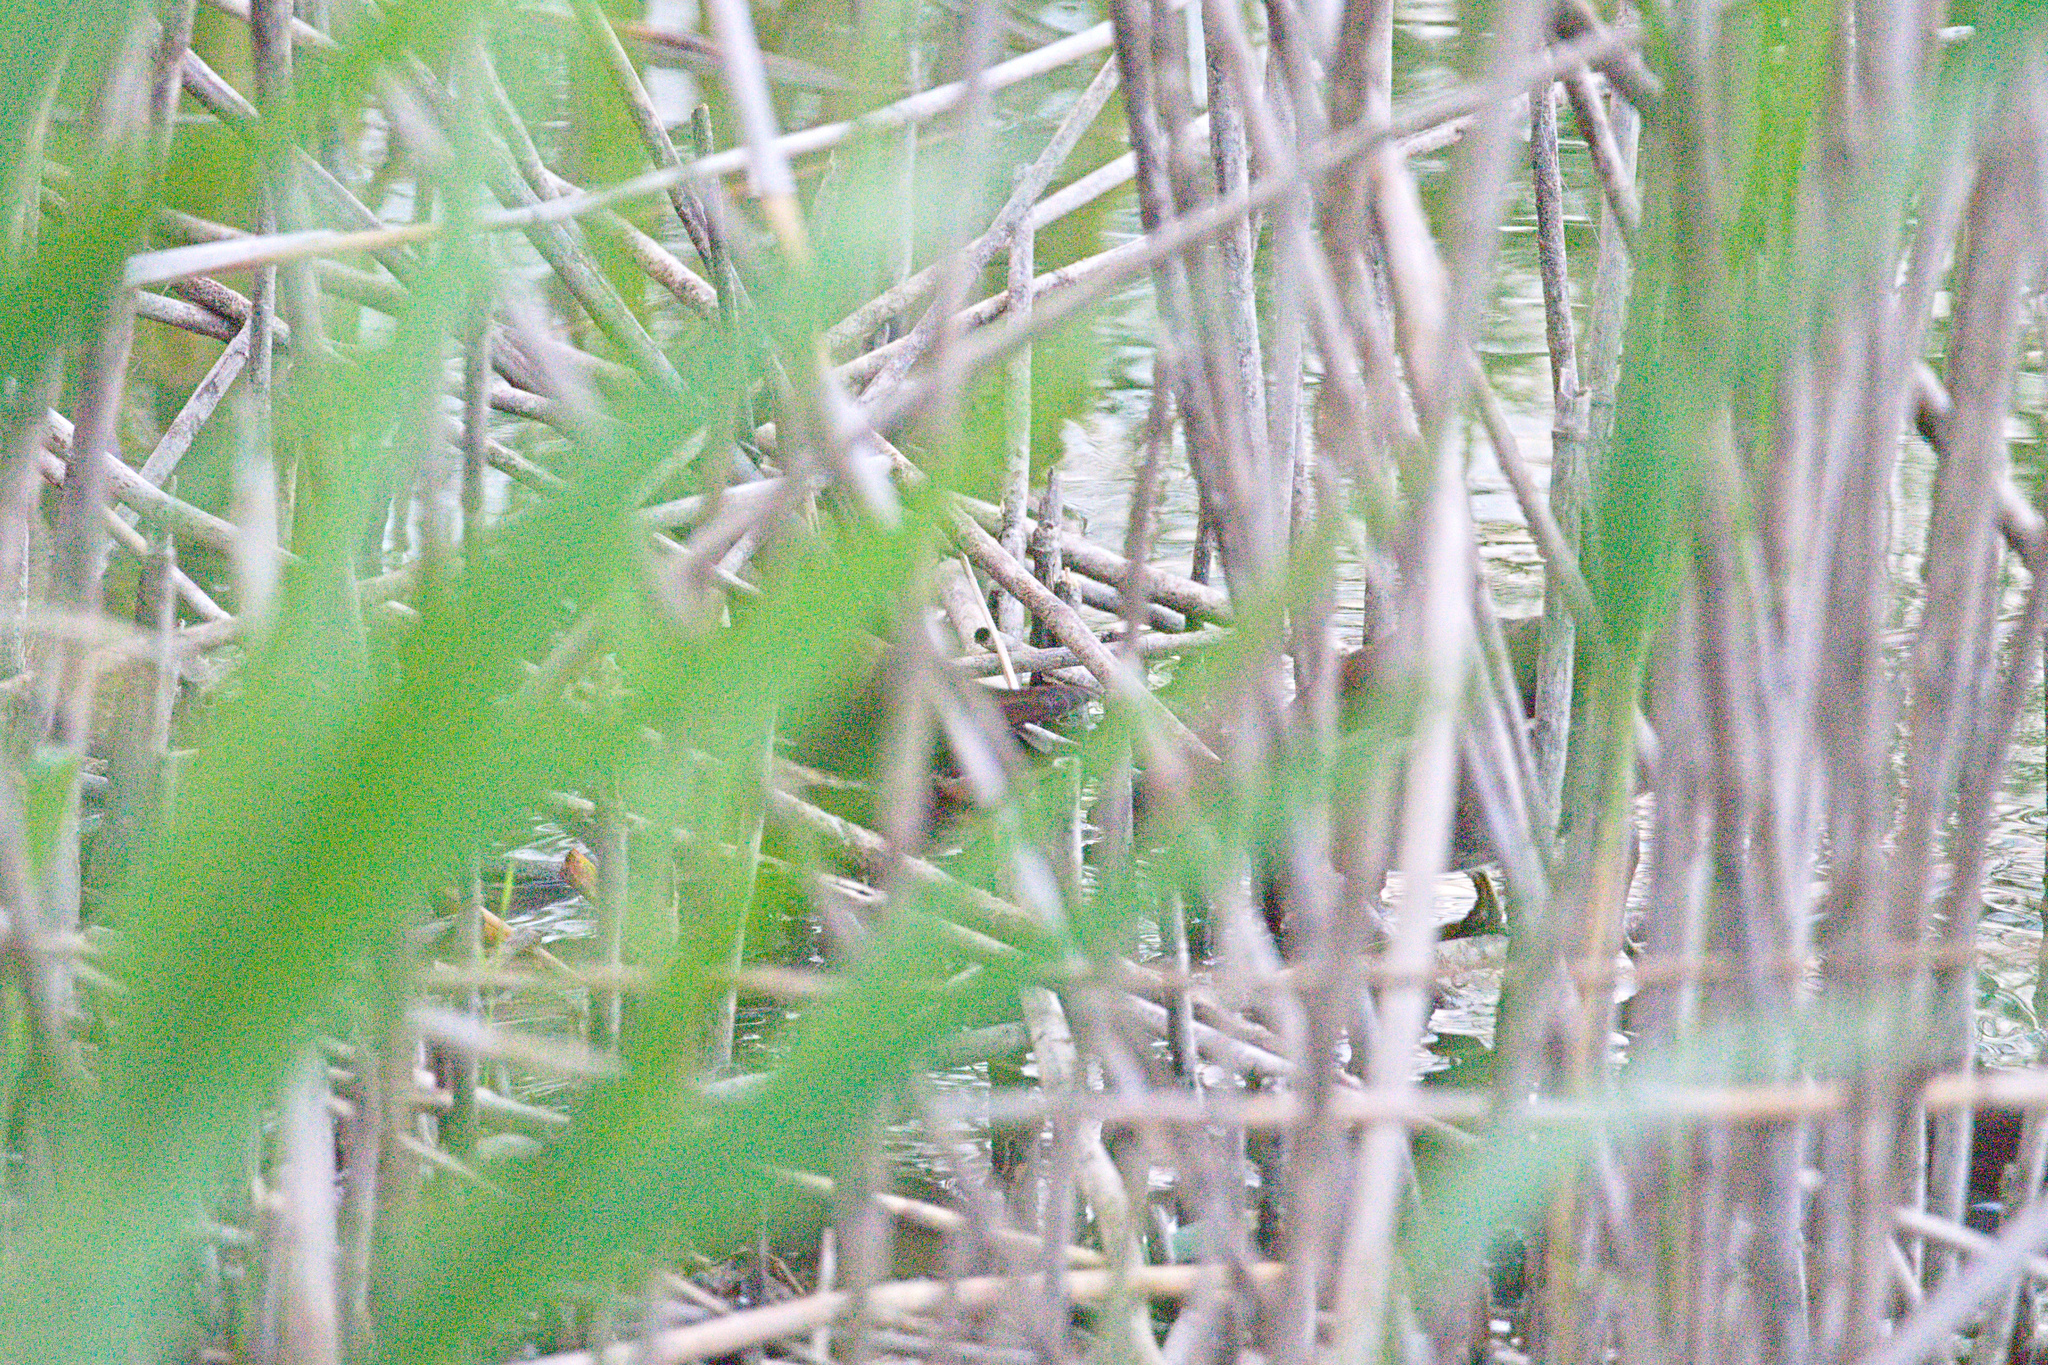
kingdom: Animalia
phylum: Chordata
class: Aves
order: Gruiformes
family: Rallidae
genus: Gallinula
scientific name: Gallinula chloropus
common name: Common moorhen
